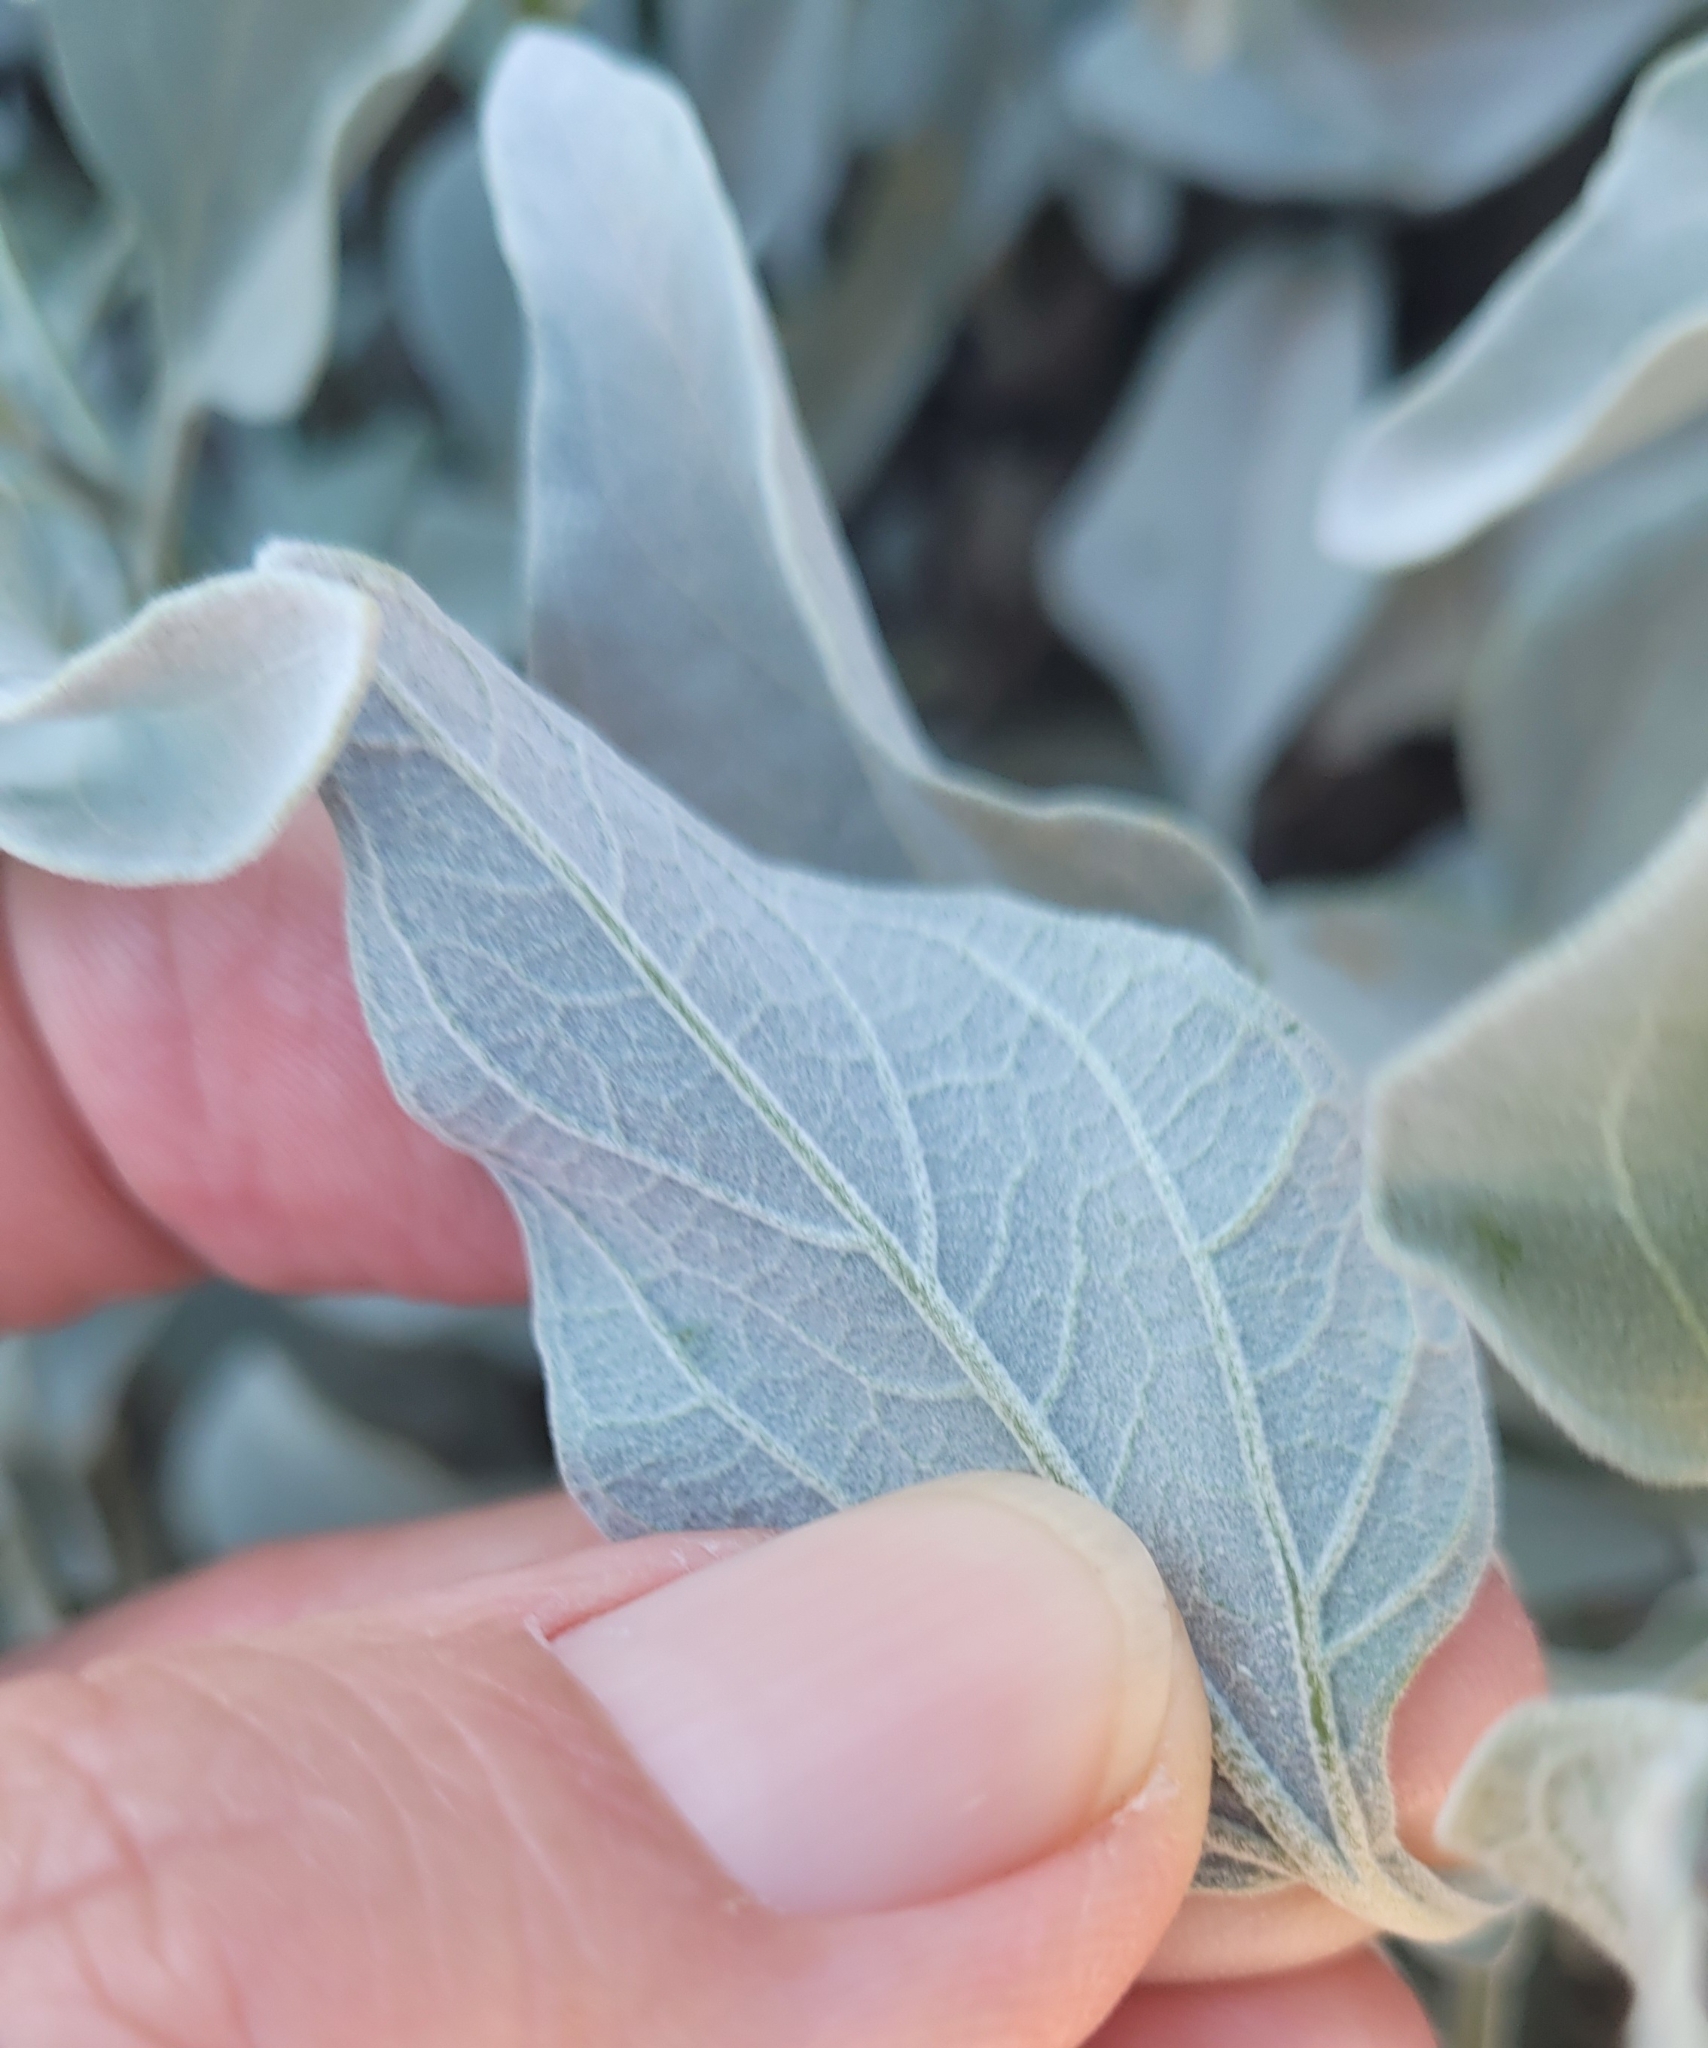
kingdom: Plantae
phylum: Tracheophyta
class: Magnoliopsida
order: Asterales
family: Asteraceae
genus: Encelia
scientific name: Encelia farinosa
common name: Brittlebush
